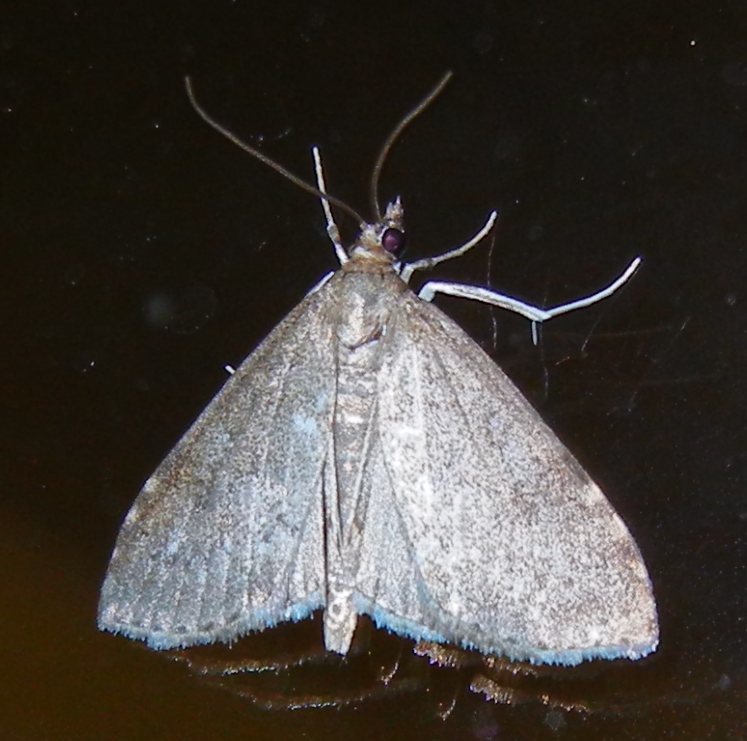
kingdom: Animalia
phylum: Arthropoda
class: Insecta
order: Lepidoptera
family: Crambidae
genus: Udea
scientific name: Udea prunalis
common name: Dusky pearl
